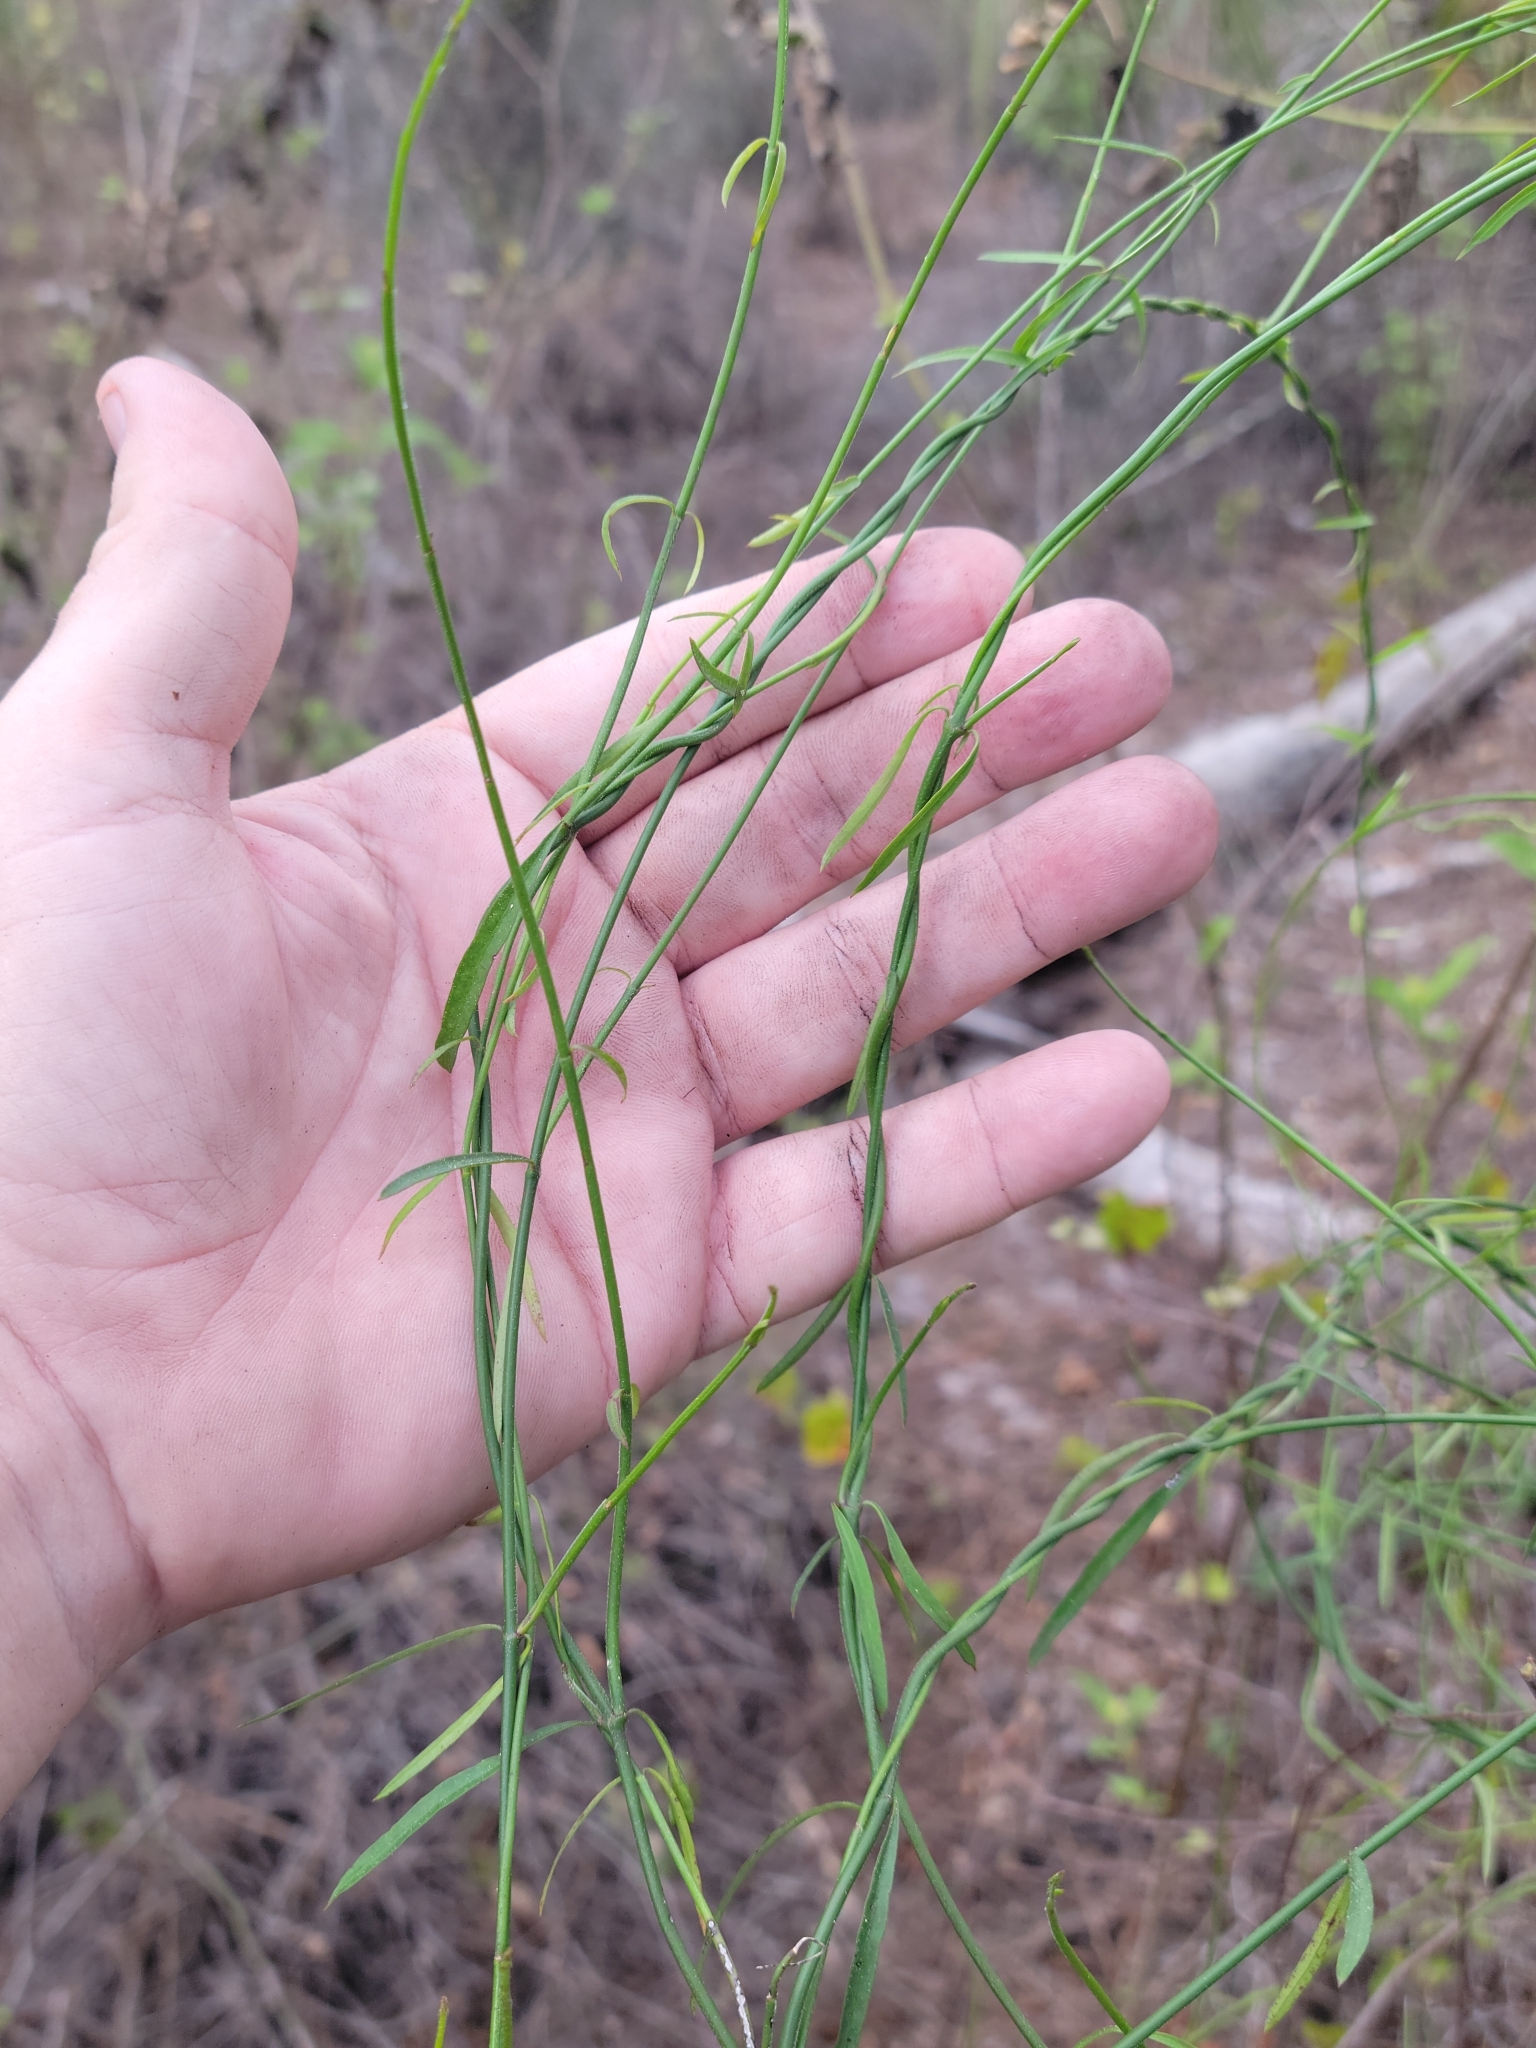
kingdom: Plantae
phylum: Tracheophyta
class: Magnoliopsida
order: Gentianales
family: Apocynaceae
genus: Orthosia
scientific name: Orthosia scoparia
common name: Leafless swallow-wort
